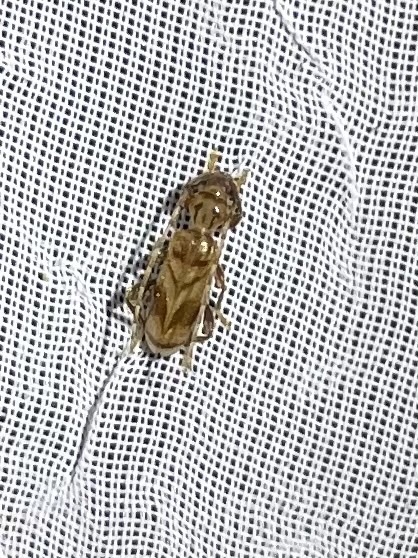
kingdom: Animalia
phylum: Arthropoda
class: Insecta
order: Coleoptera
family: Cerambycidae
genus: Obrium
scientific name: Obrium maculatum
